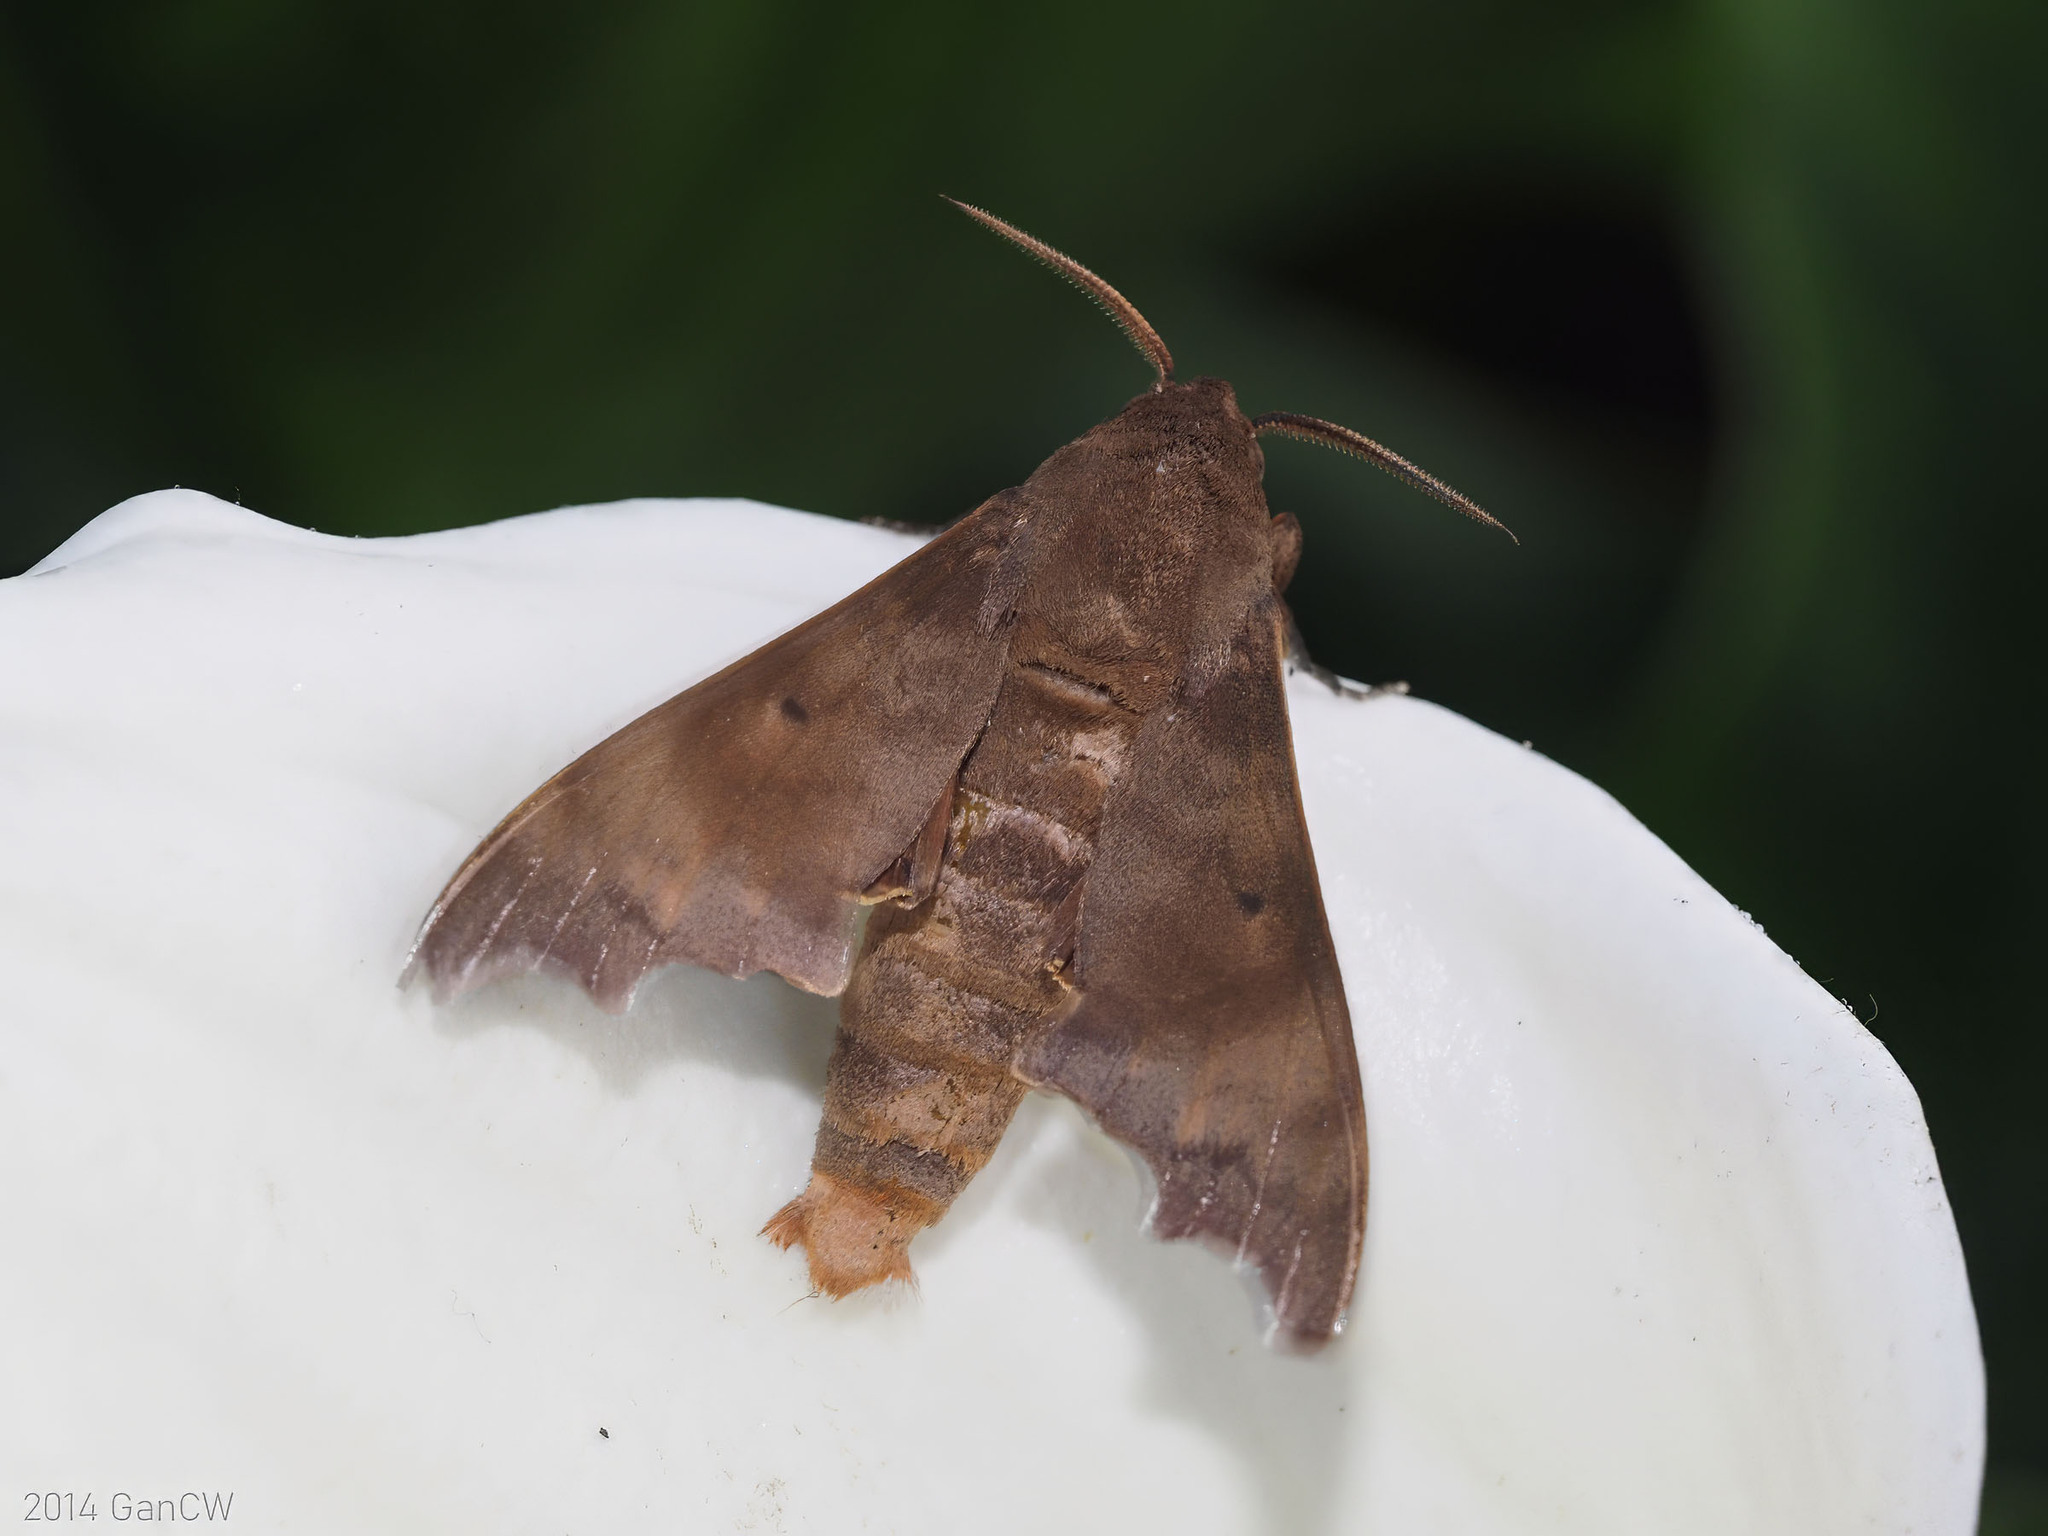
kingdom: Animalia
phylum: Arthropoda
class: Insecta
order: Lepidoptera
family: Sphingidae
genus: Cypa
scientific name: Cypa decolor
